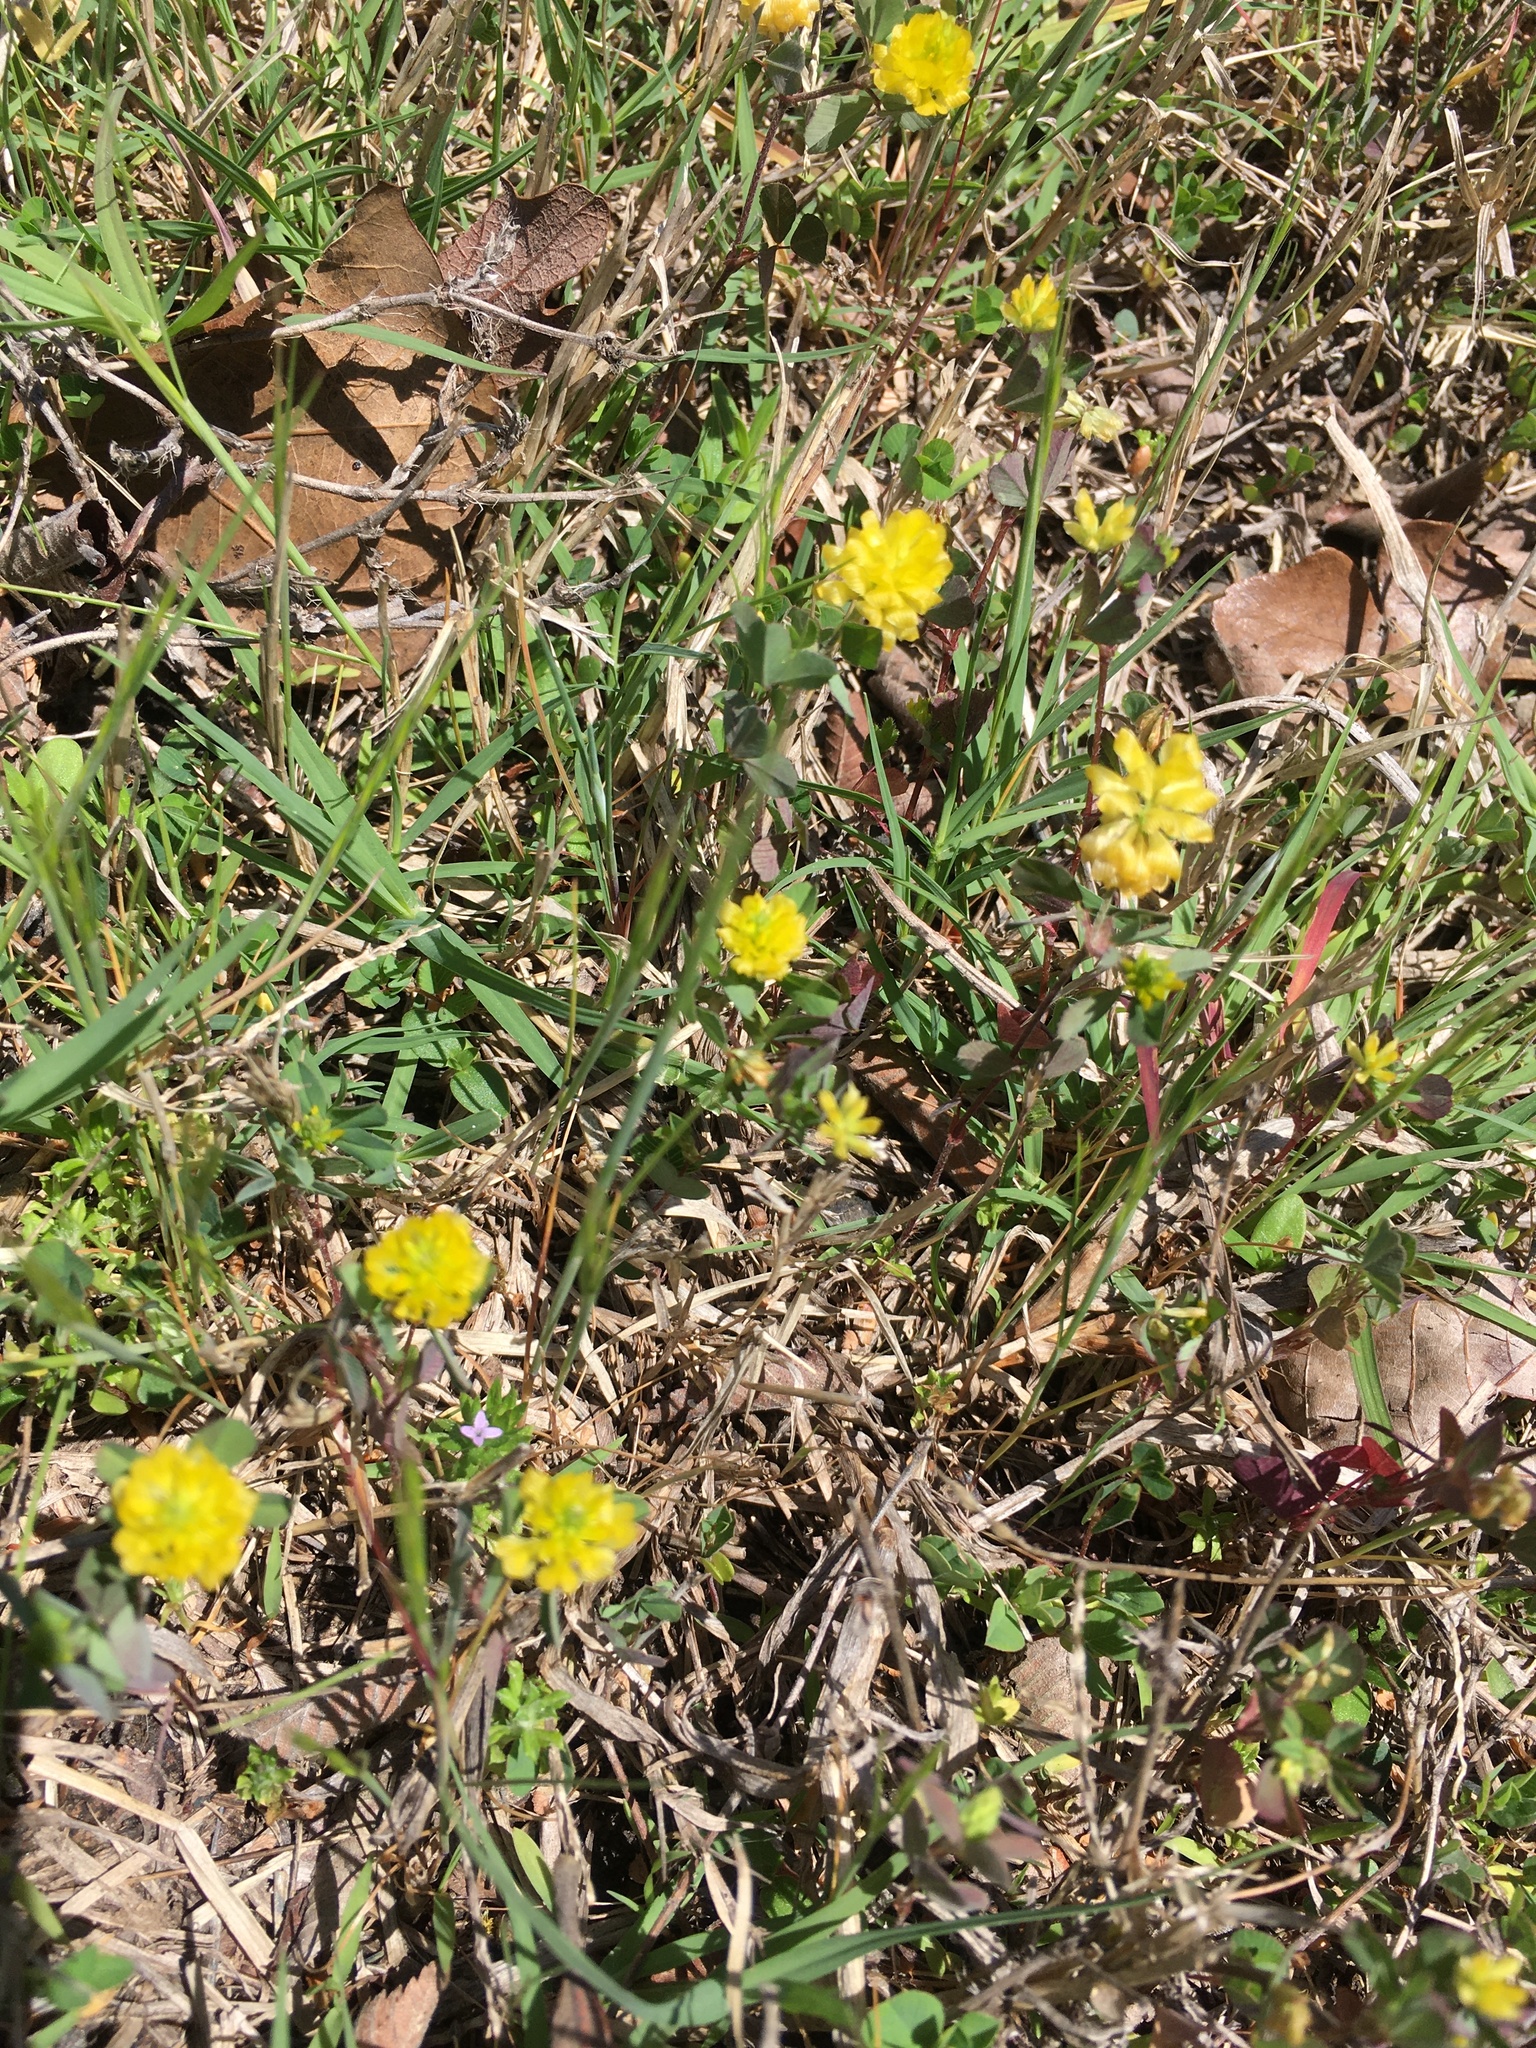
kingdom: Plantae
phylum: Tracheophyta
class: Magnoliopsida
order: Fabales
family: Fabaceae
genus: Trifolium
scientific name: Trifolium campestre
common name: Field clover
